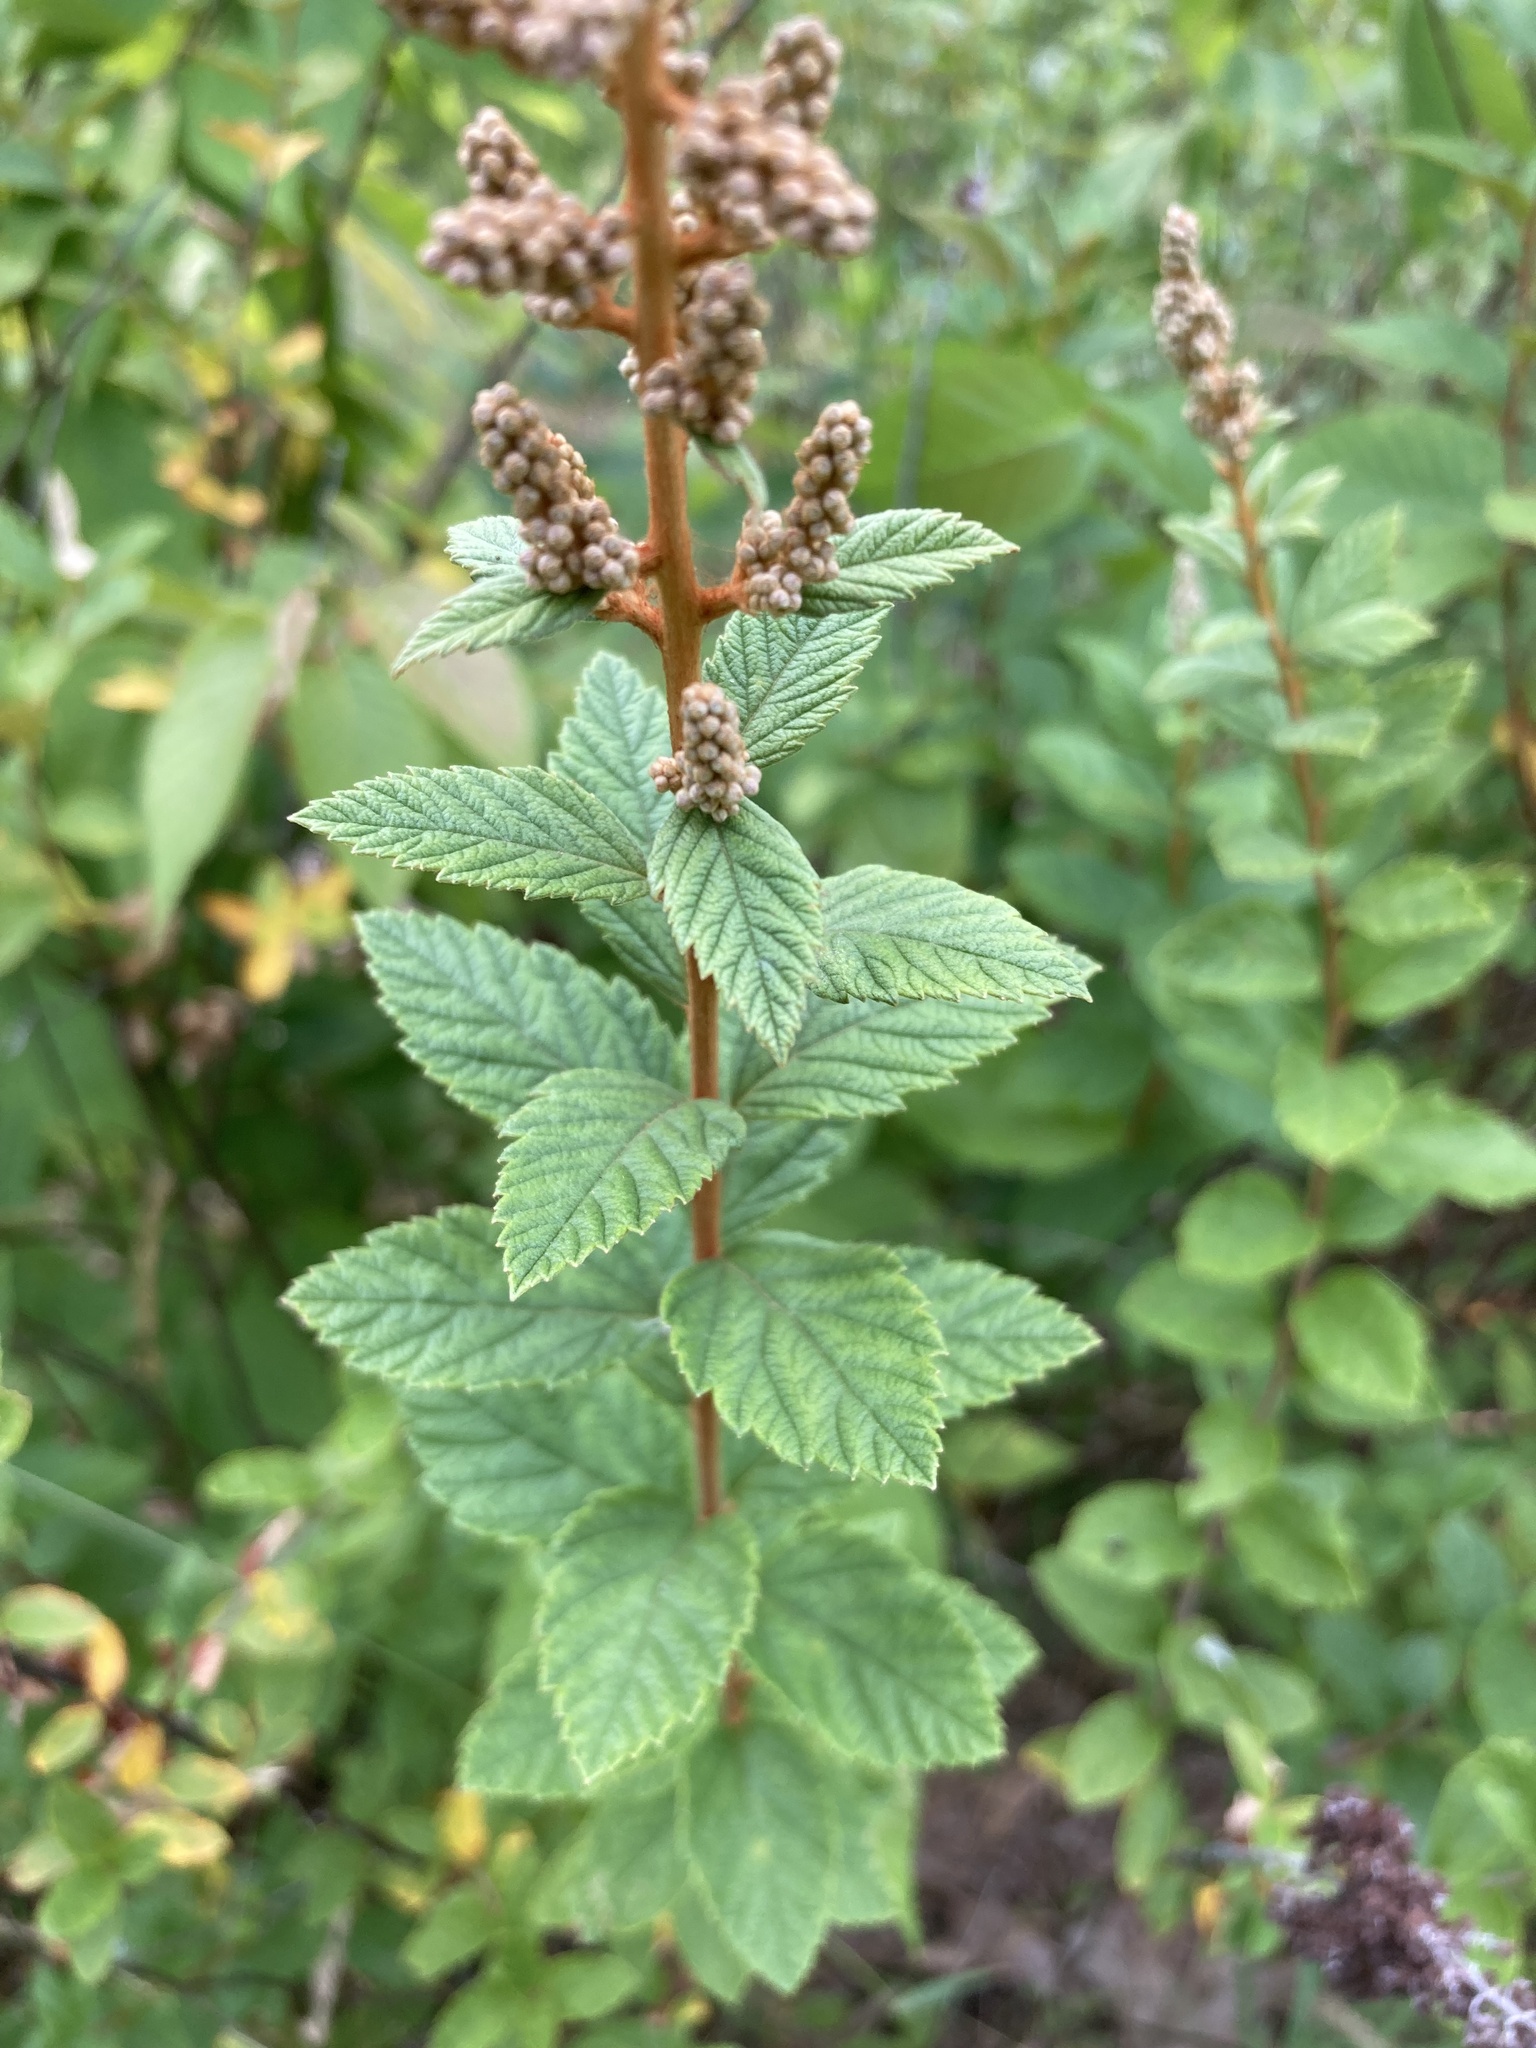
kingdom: Plantae
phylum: Tracheophyta
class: Magnoliopsida
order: Rosales
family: Rosaceae
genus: Spiraea
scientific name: Spiraea tomentosa
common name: Hardhack
